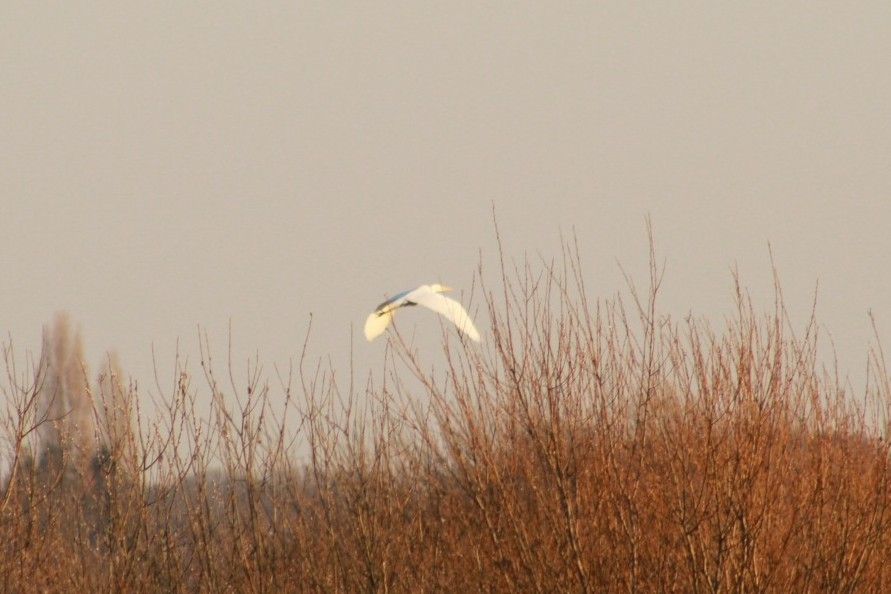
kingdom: Animalia
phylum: Chordata
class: Aves
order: Pelecaniformes
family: Ardeidae
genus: Ardea
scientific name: Ardea alba
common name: Great egret
